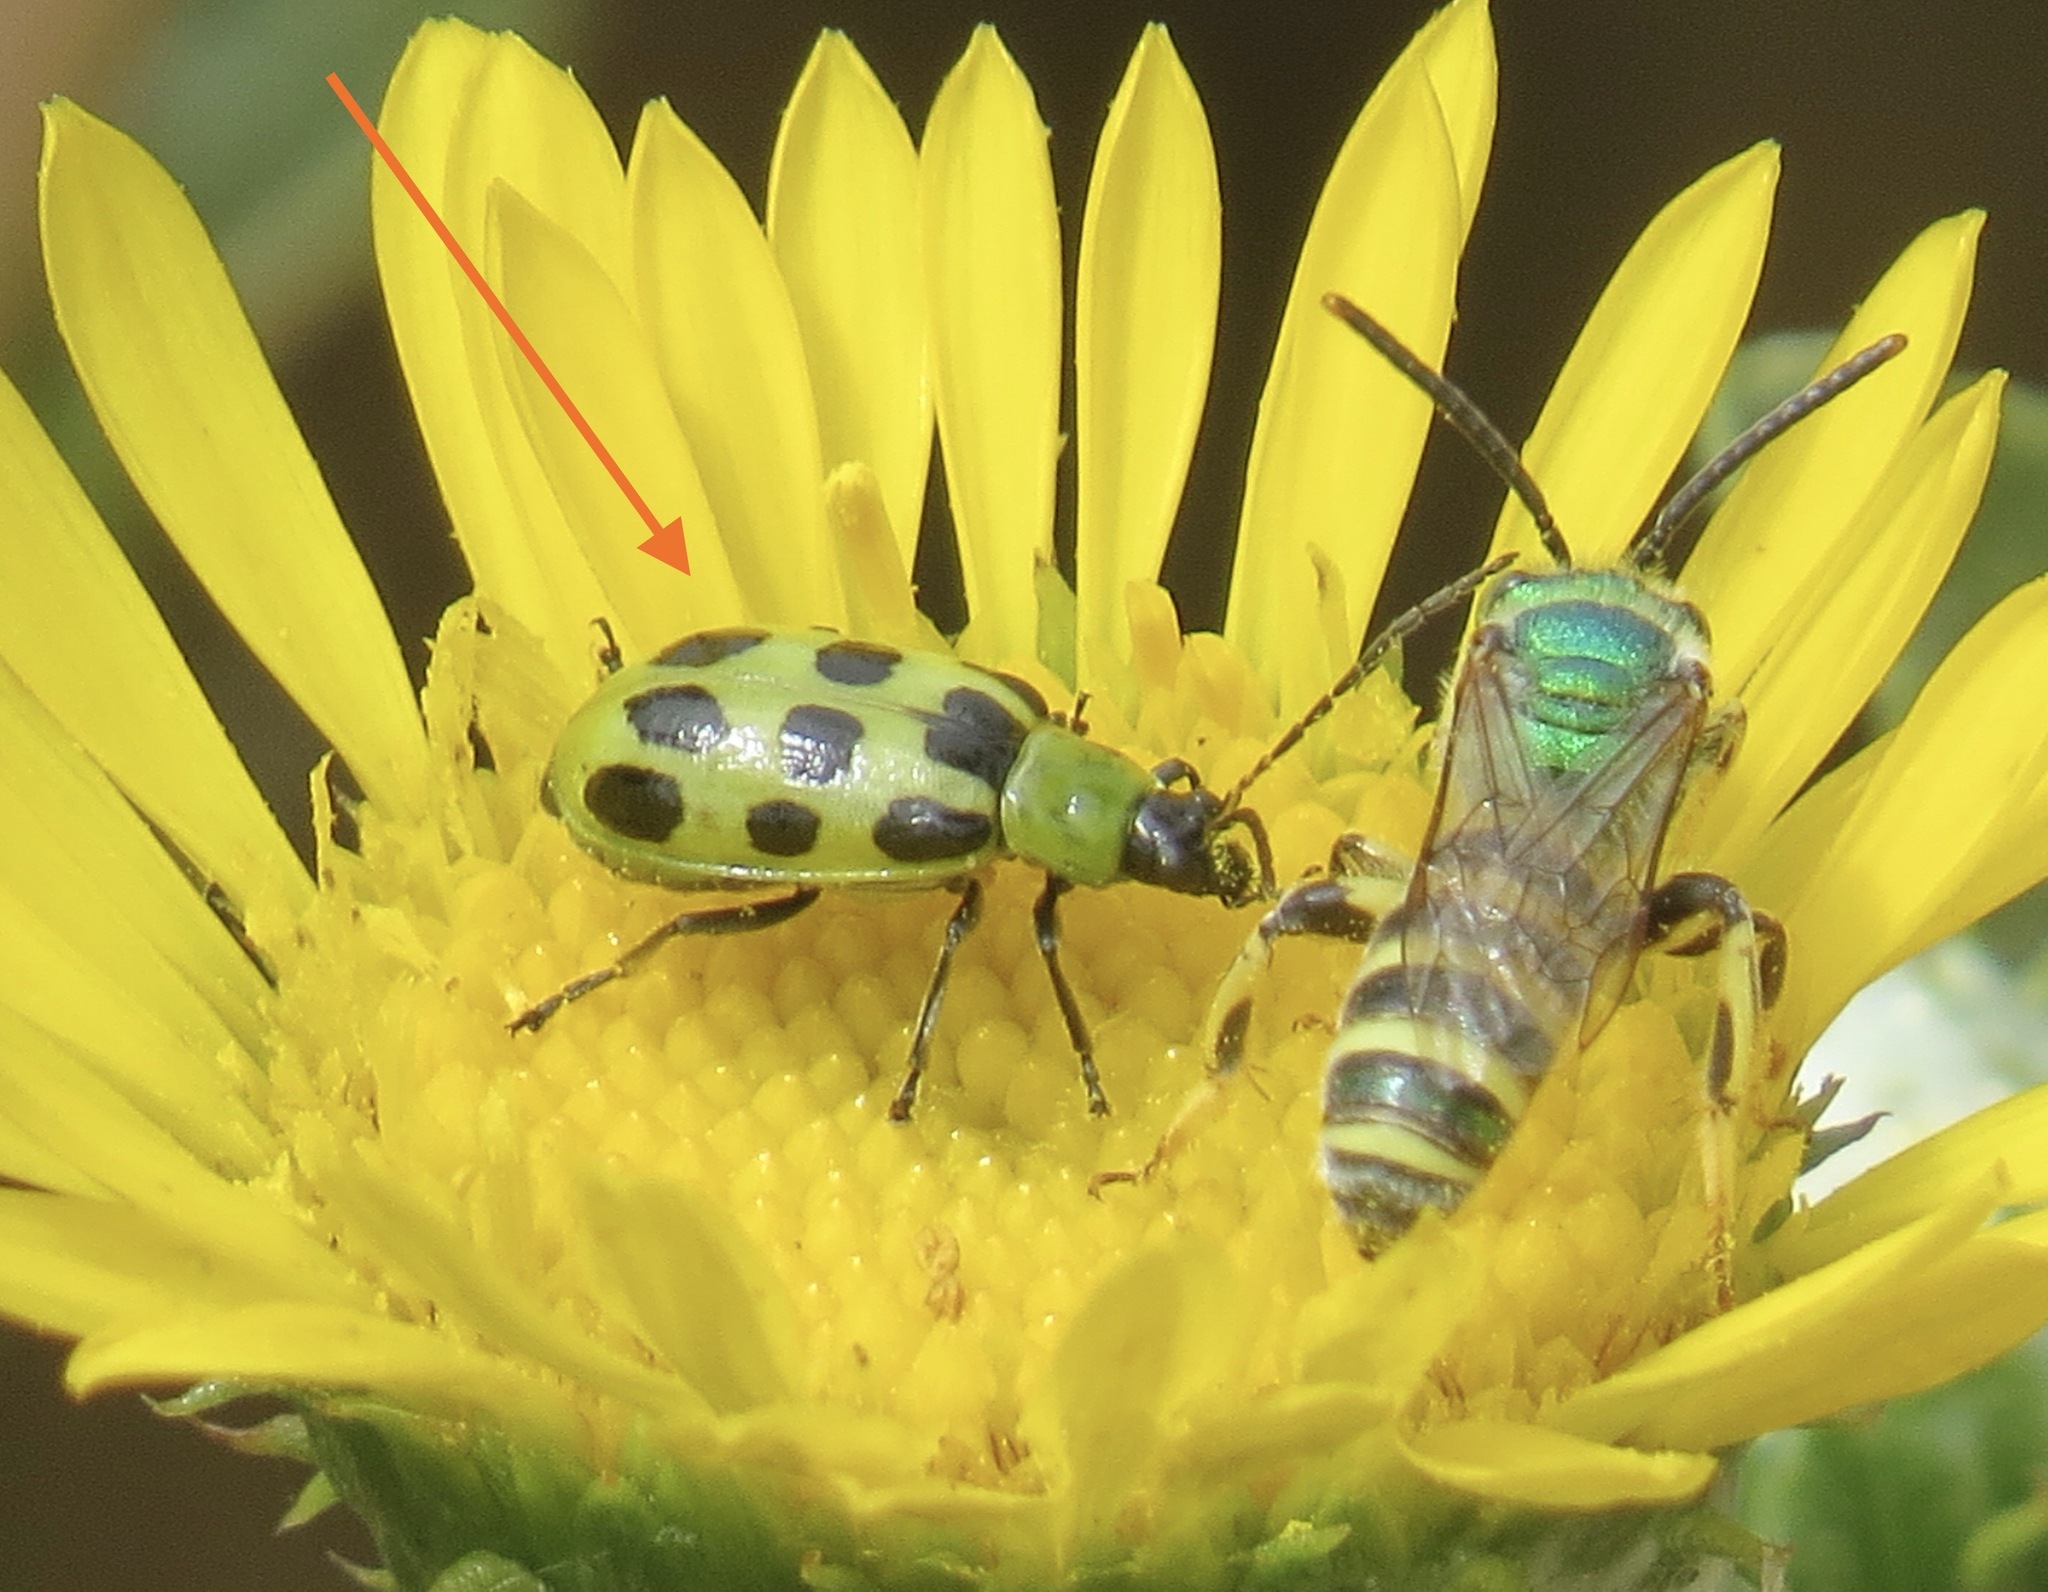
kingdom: Animalia
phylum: Arthropoda
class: Insecta
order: Coleoptera
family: Chrysomelidae
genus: Diabrotica
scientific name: Diabrotica undecimpunctata
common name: Spotted cucumber beetle
